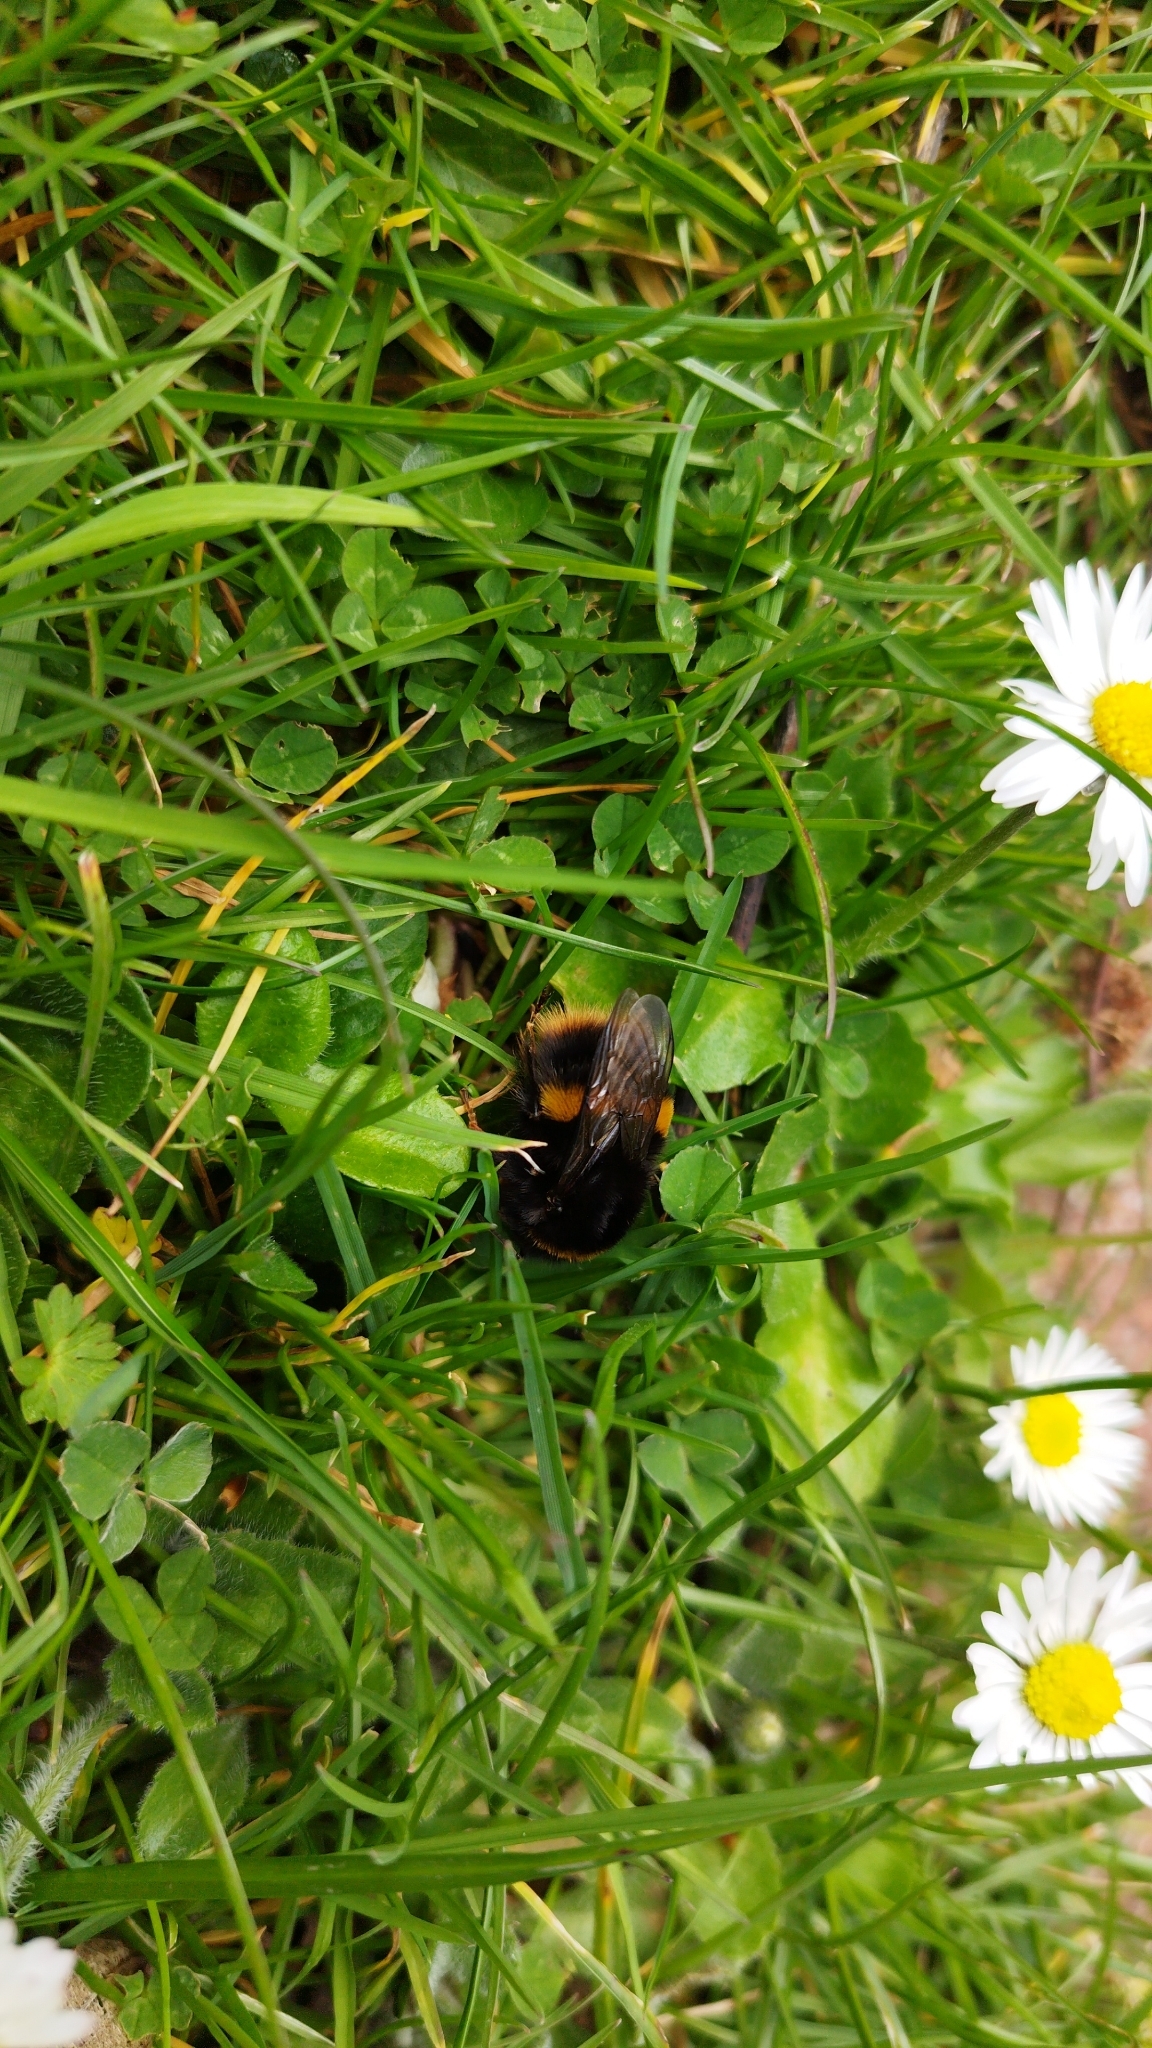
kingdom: Animalia
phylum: Arthropoda
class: Insecta
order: Hymenoptera
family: Apidae
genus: Bombus
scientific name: Bombus terrestris
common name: Buff-tailed bumblebee
